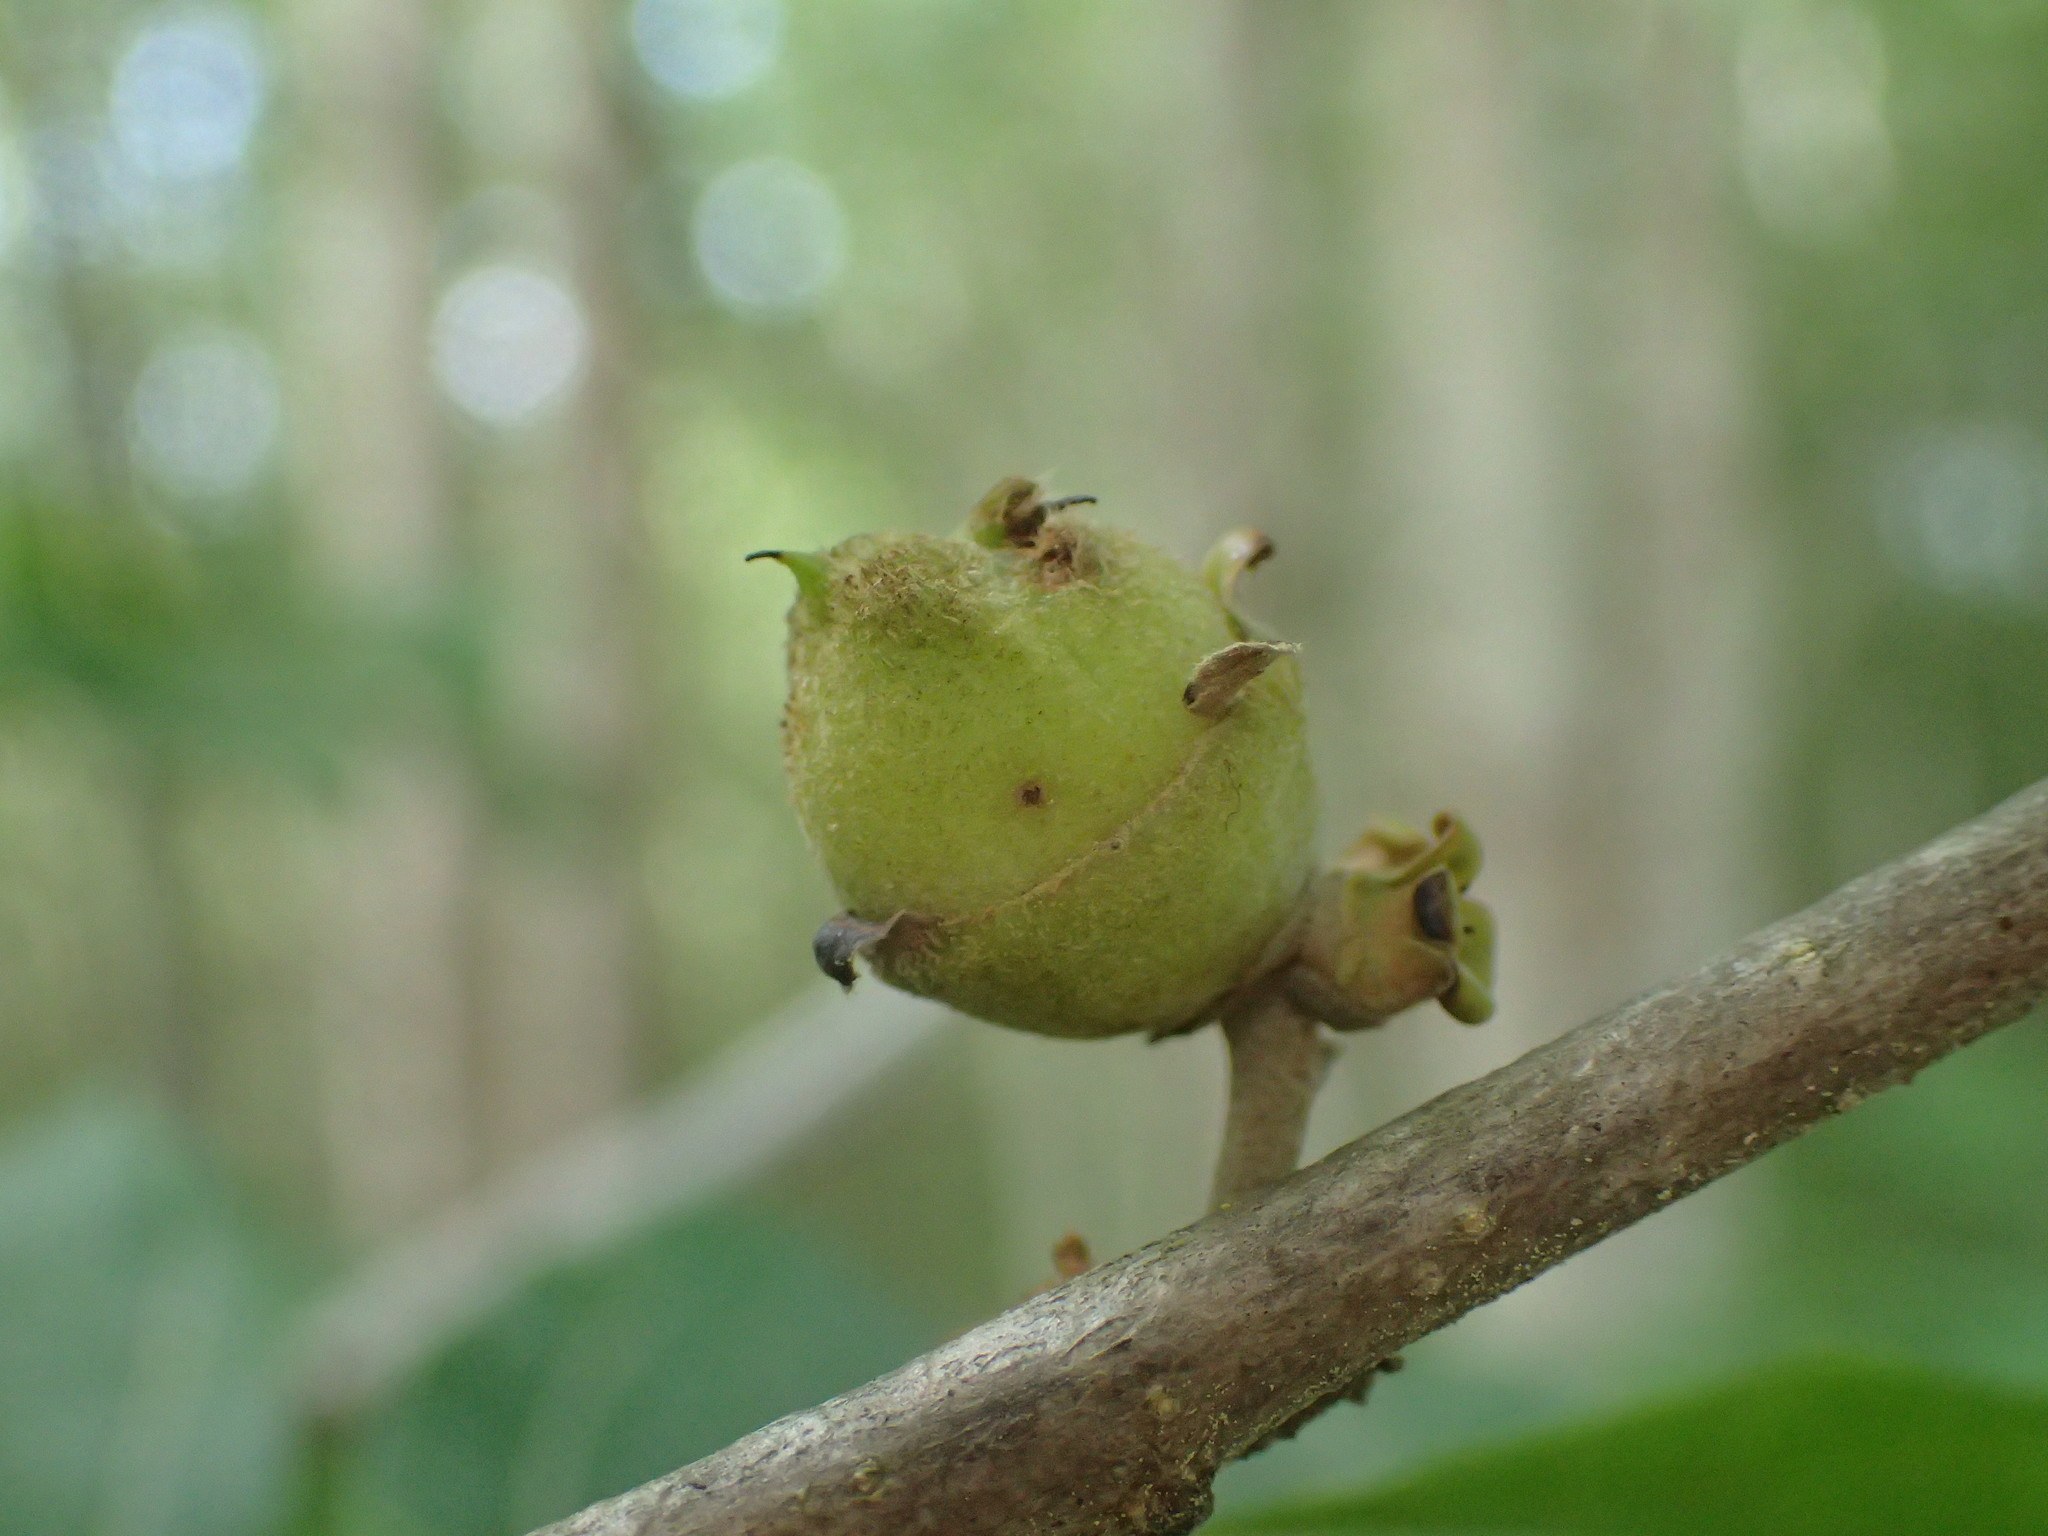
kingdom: Plantae
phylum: Tracheophyta
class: Magnoliopsida
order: Saxifragales
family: Hamamelidaceae
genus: Hamamelis
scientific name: Hamamelis virginiana
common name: Witch-hazel
